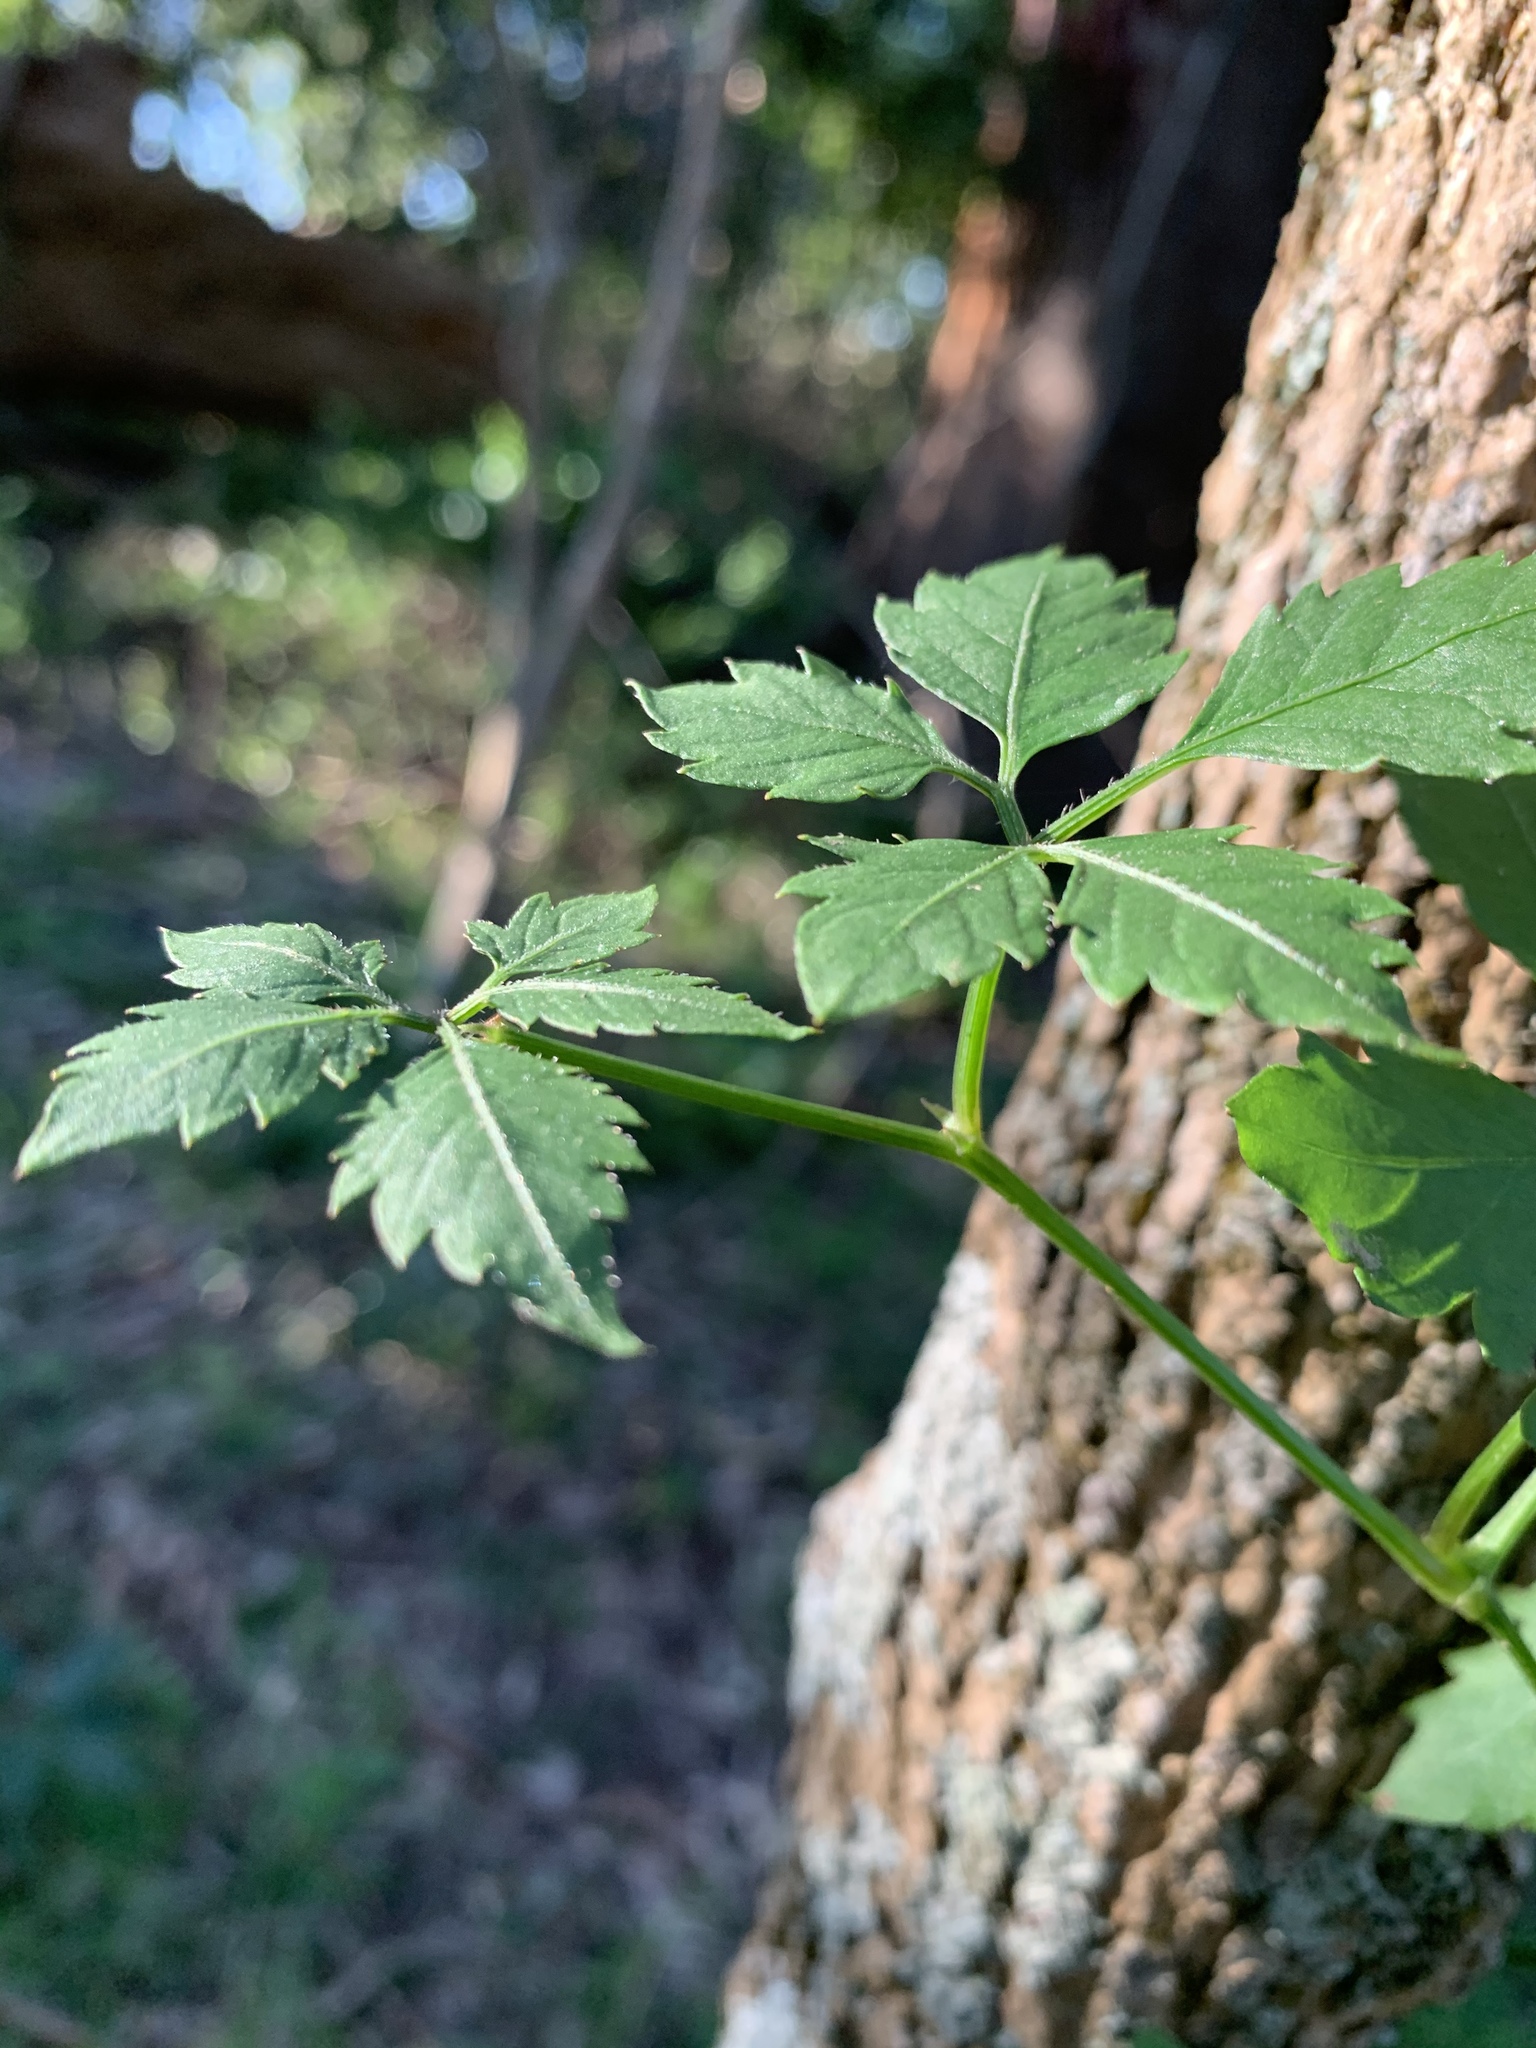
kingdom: Plantae
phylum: Tracheophyta
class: Magnoliopsida
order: Vitales
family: Vitaceae
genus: Causonis
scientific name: Causonis clematidea
